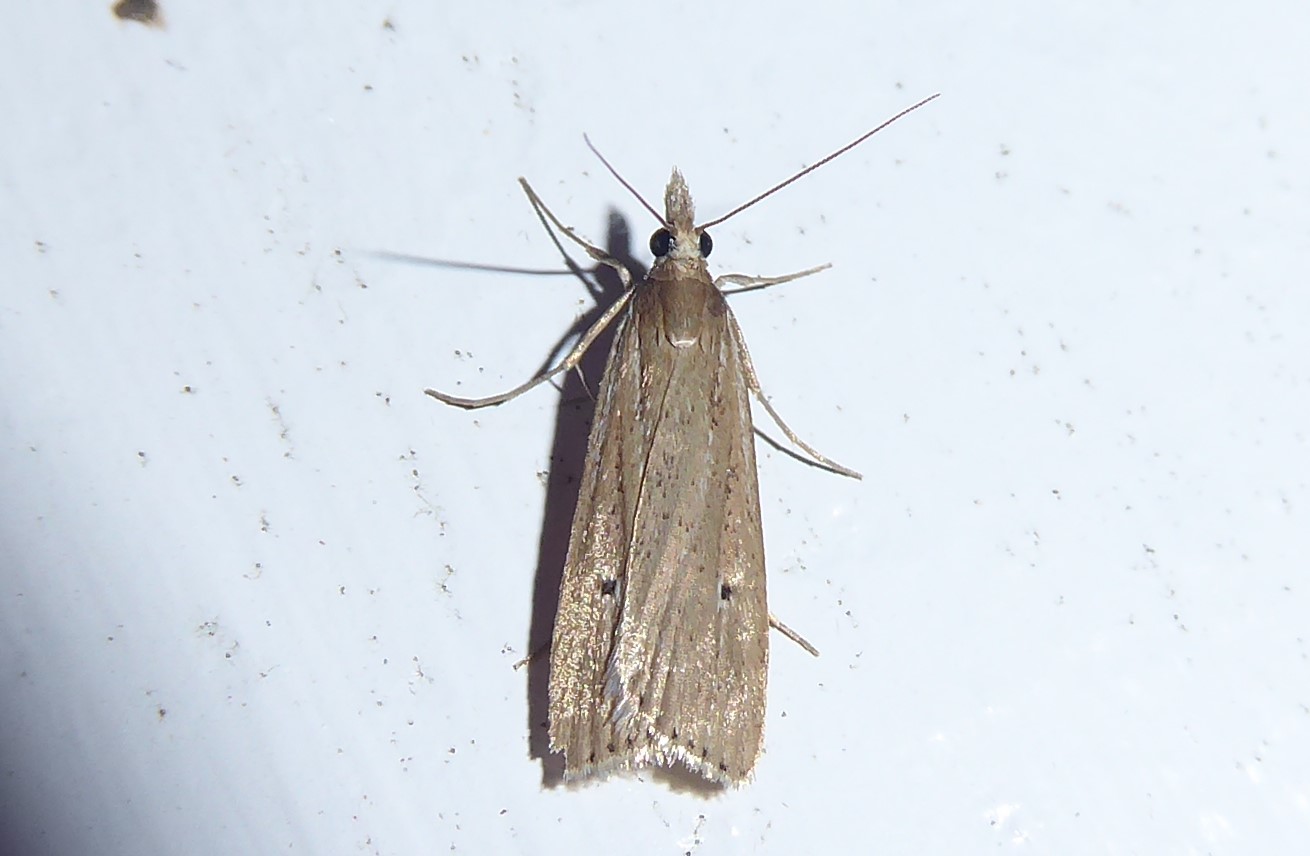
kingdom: Animalia
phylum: Arthropoda
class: Insecta
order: Lepidoptera
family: Crambidae
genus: Eudonia
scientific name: Eudonia sabulosella
